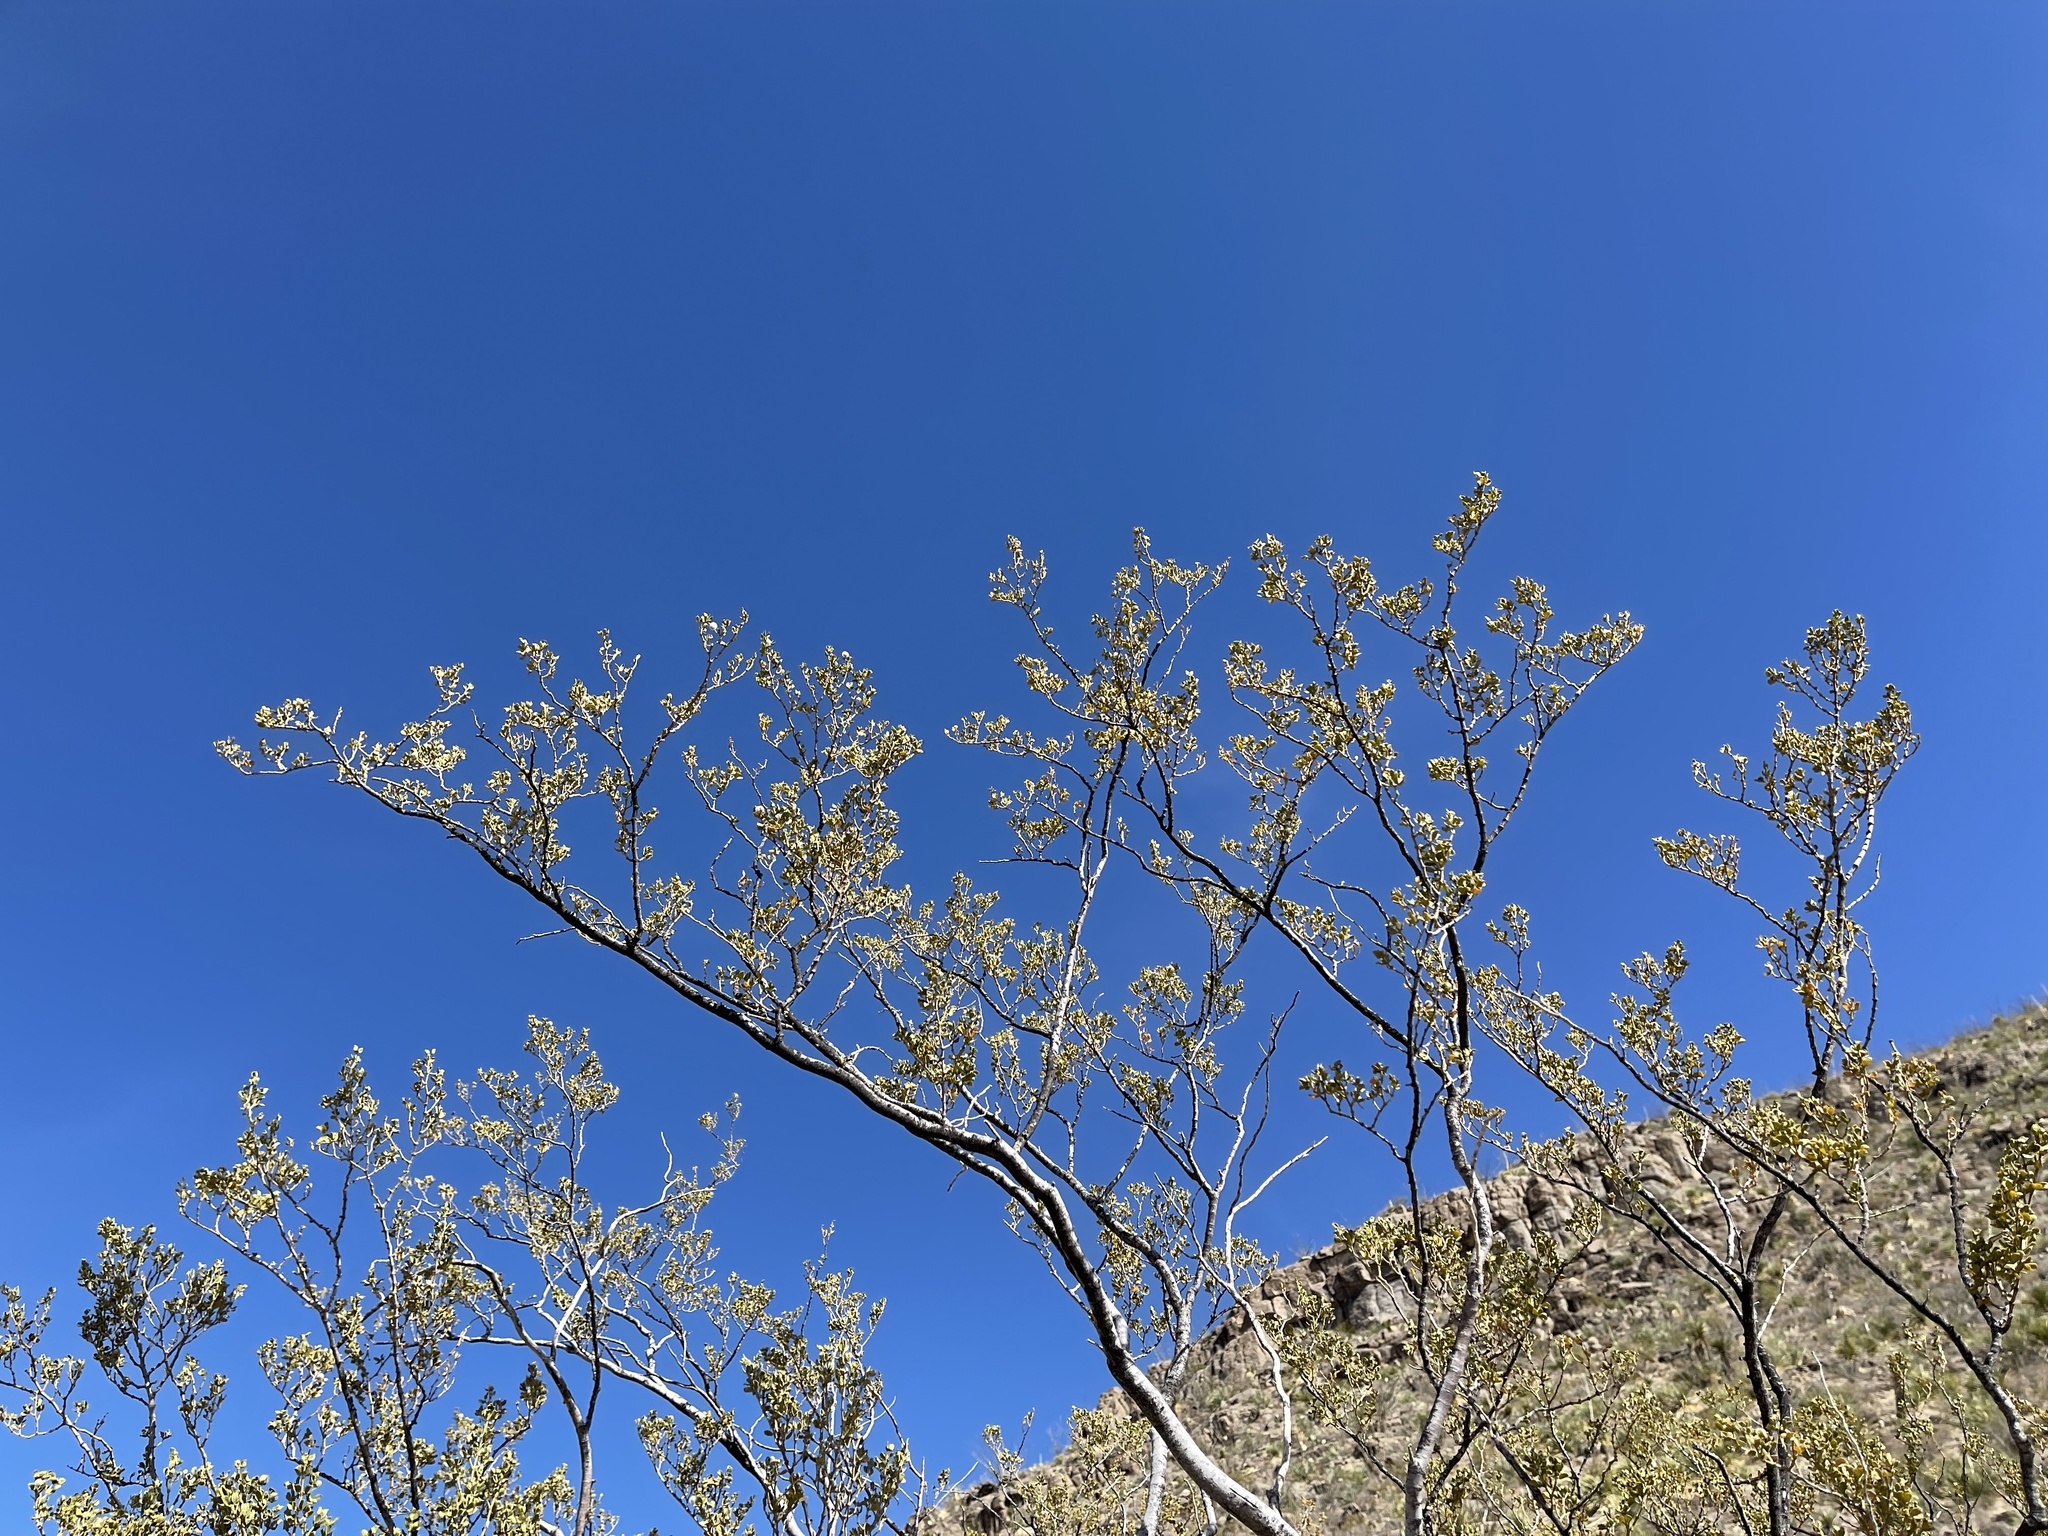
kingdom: Plantae
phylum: Tracheophyta
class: Magnoliopsida
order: Zygophyllales
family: Zygophyllaceae
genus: Larrea
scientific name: Larrea tridentata
